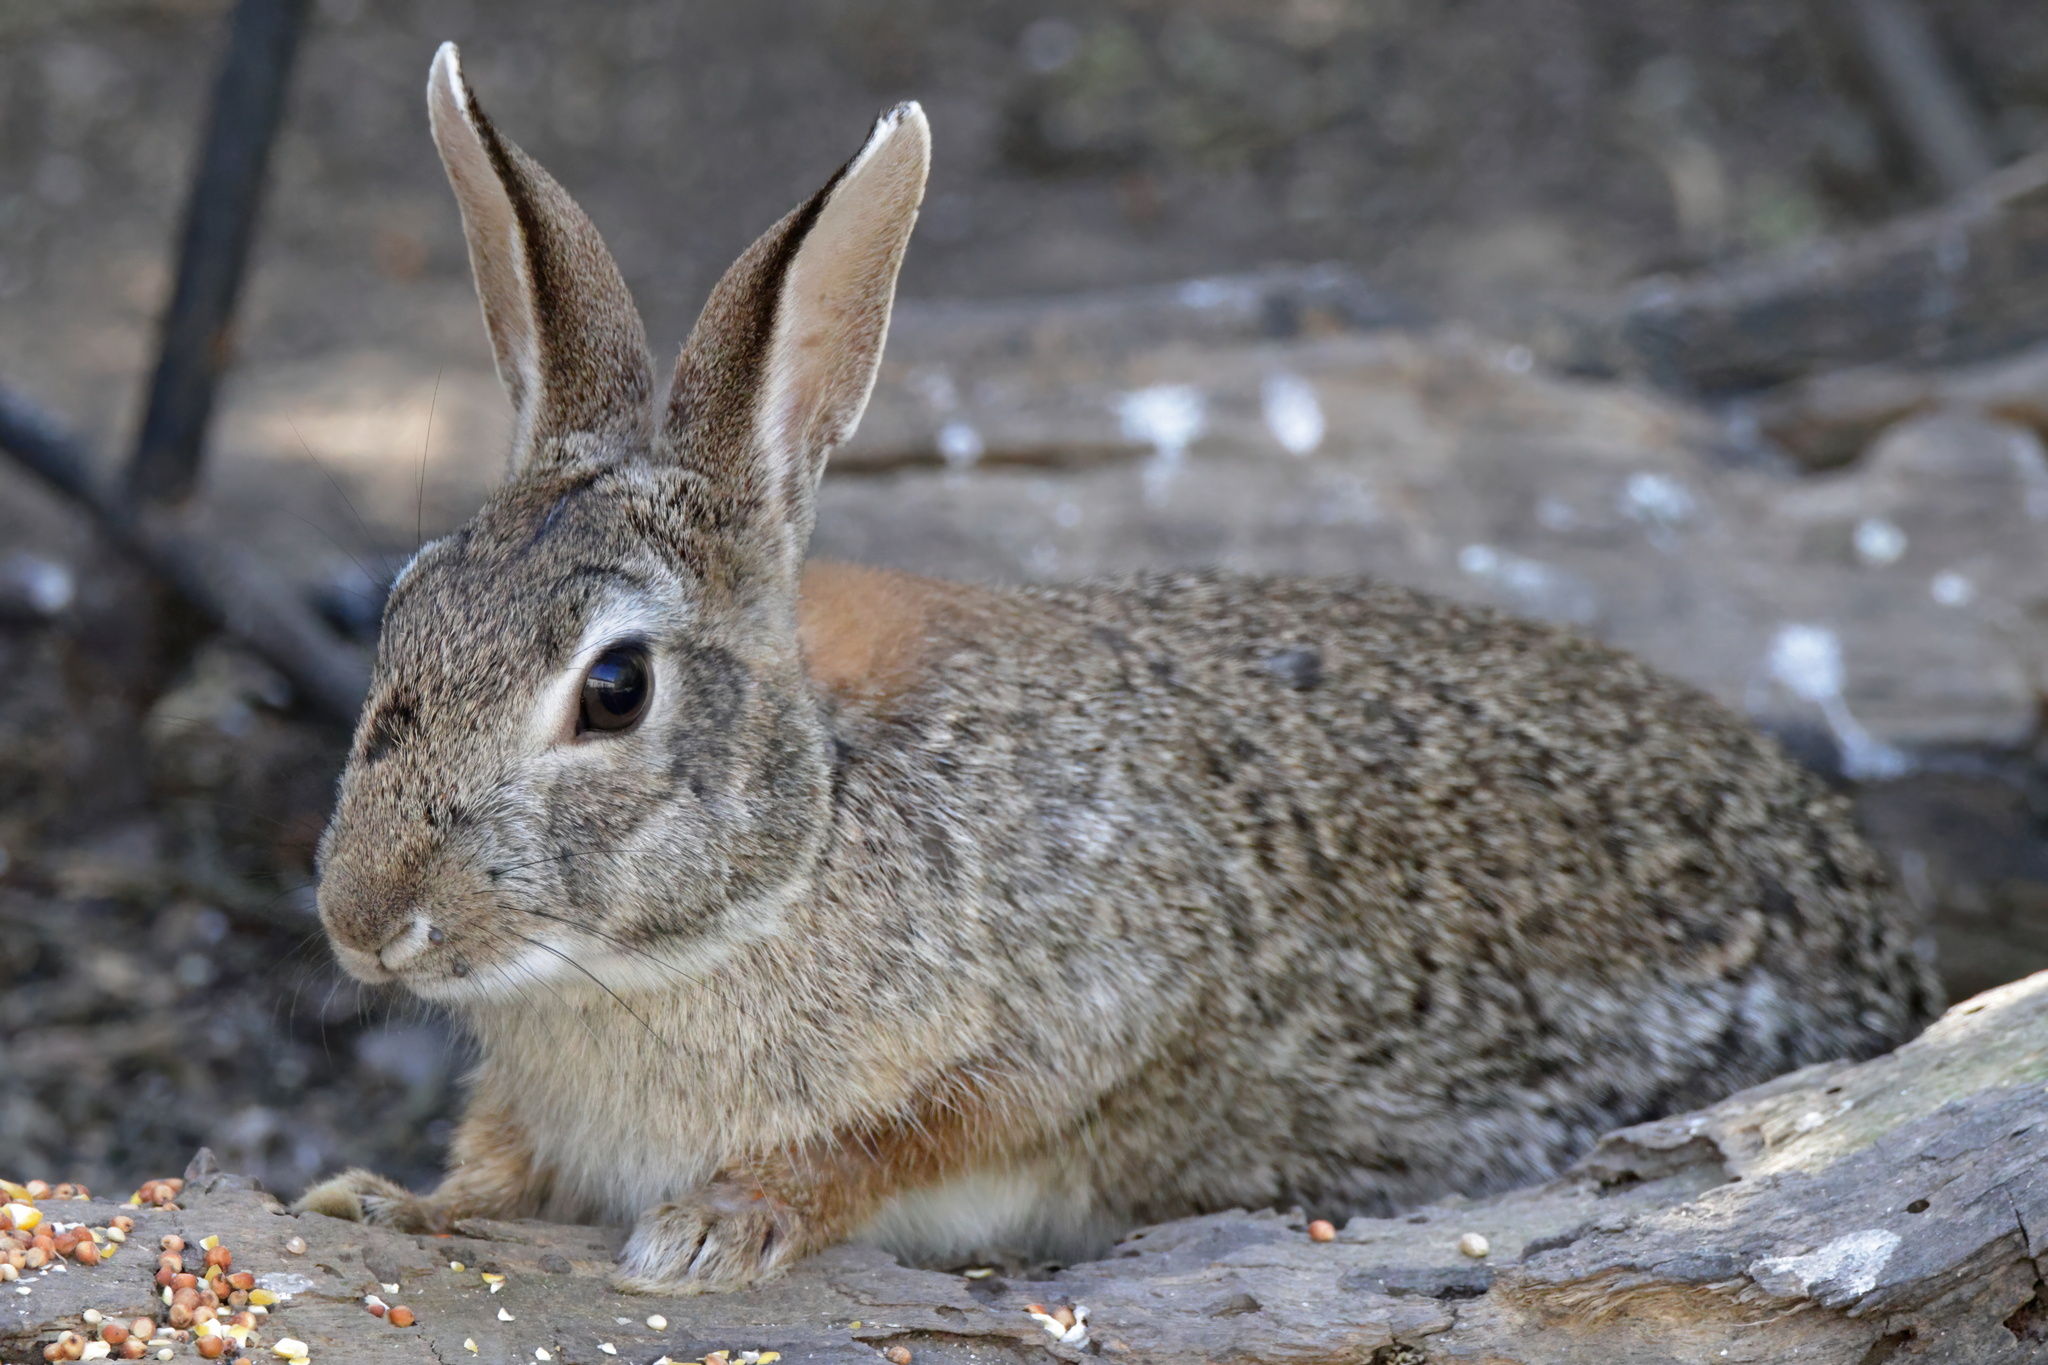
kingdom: Animalia
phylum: Chordata
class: Mammalia
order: Lagomorpha
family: Leporidae
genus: Sylvilagus
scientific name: Sylvilagus audubonii
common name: Desert cottontail
